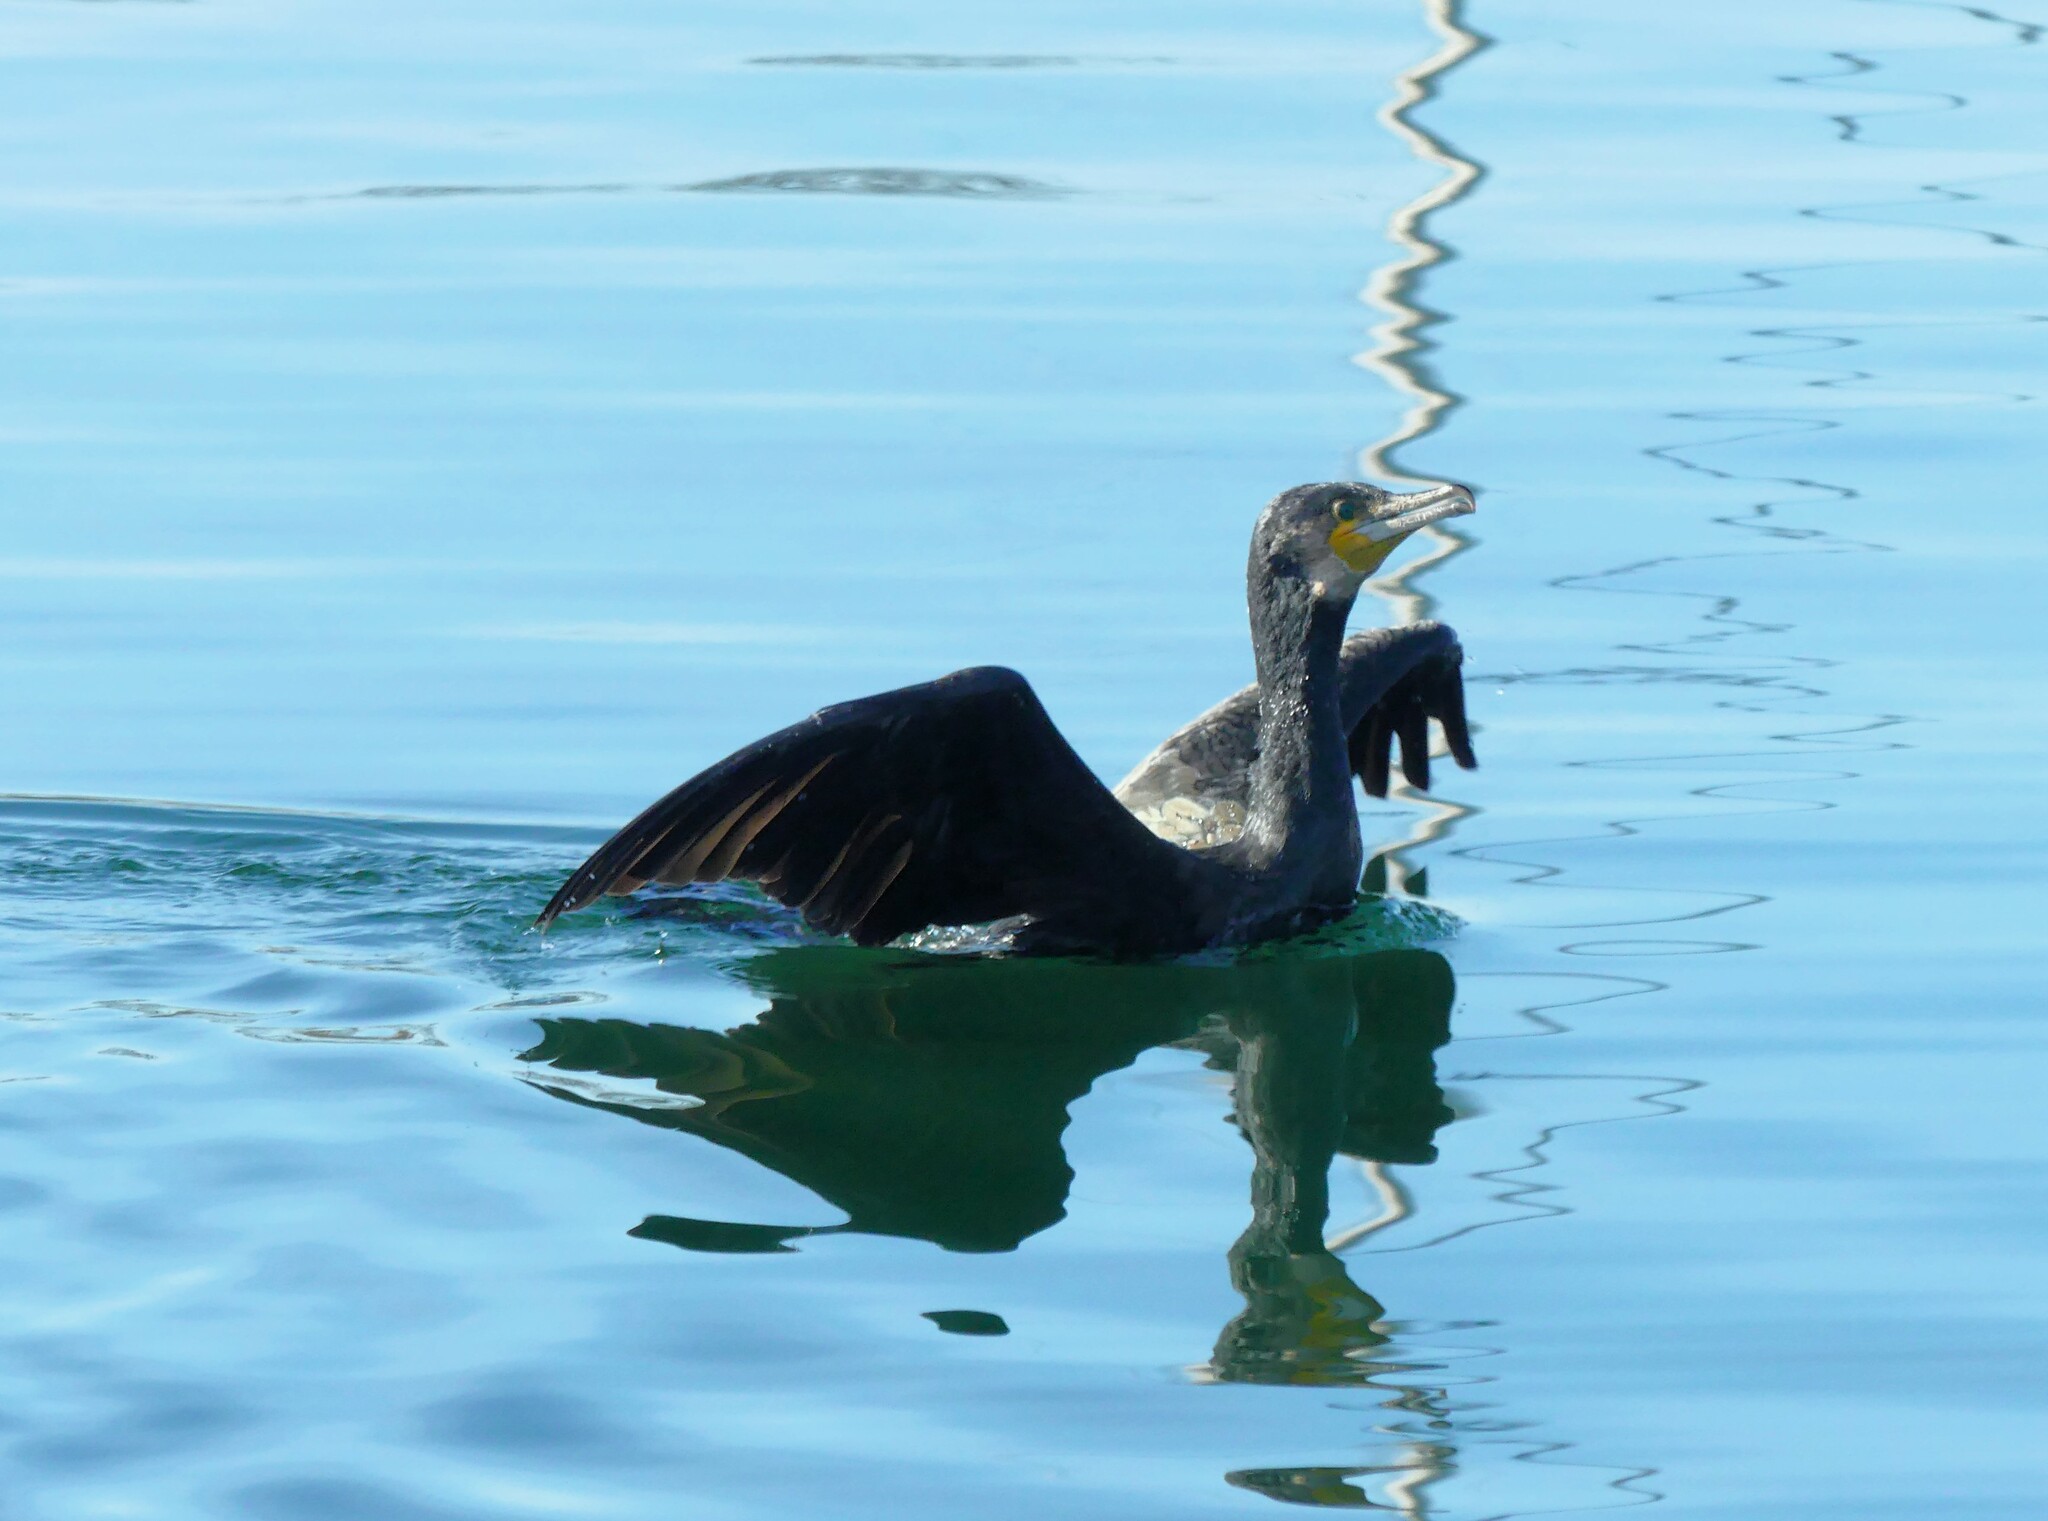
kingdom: Animalia
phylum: Chordata
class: Aves
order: Suliformes
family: Phalacrocoracidae
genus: Phalacrocorax
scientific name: Phalacrocorax carbo
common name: Great cormorant
